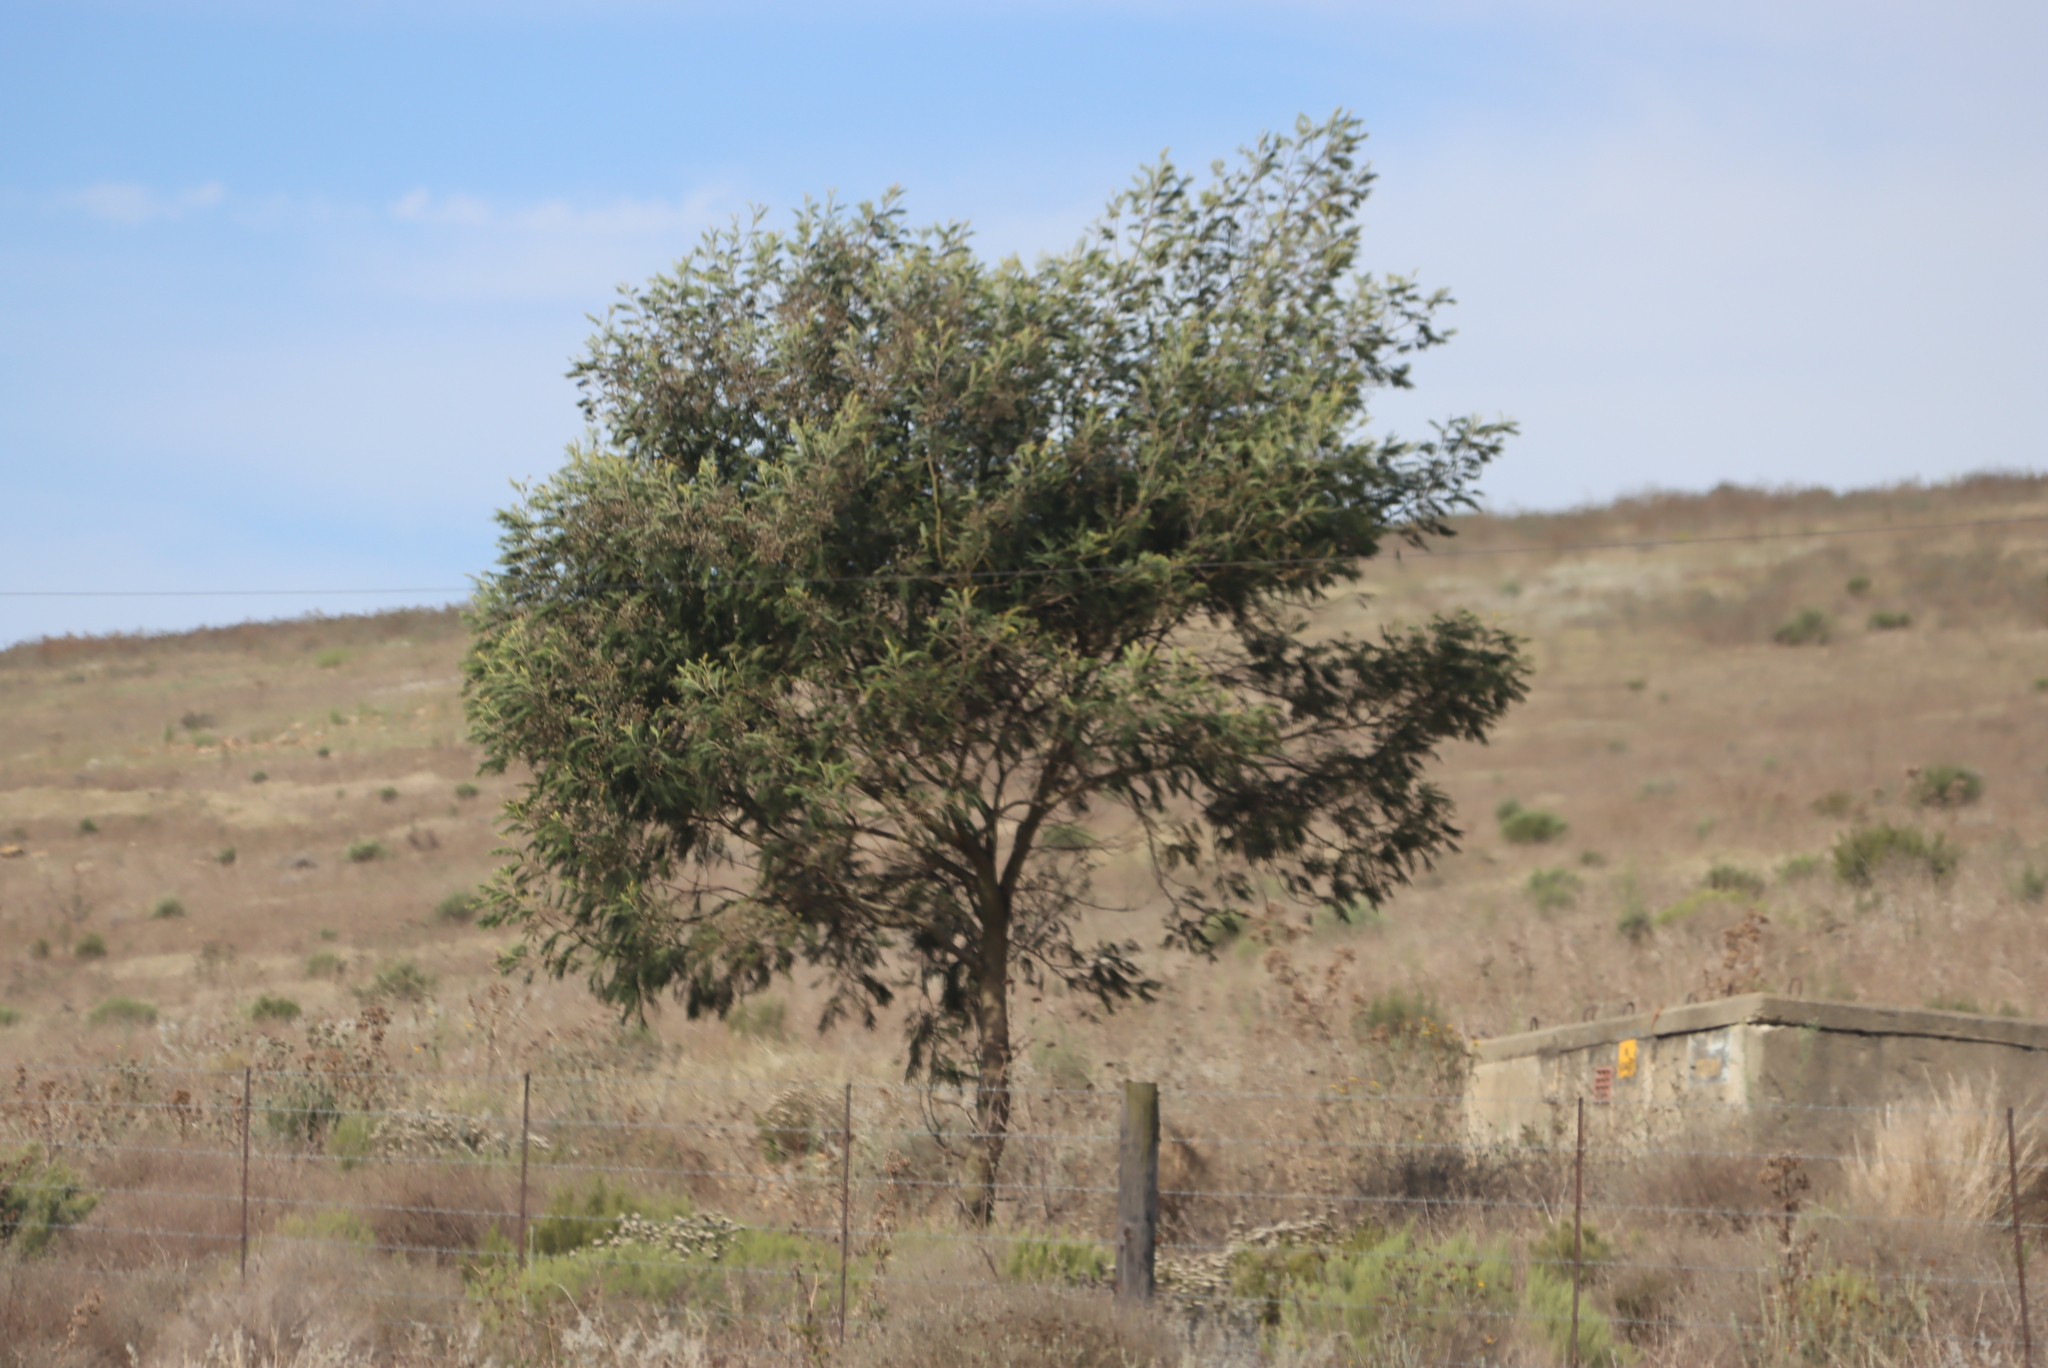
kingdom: Plantae
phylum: Tracheophyta
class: Magnoliopsida
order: Fabales
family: Fabaceae
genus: Acacia
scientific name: Acacia mearnsii
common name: Black wattle
